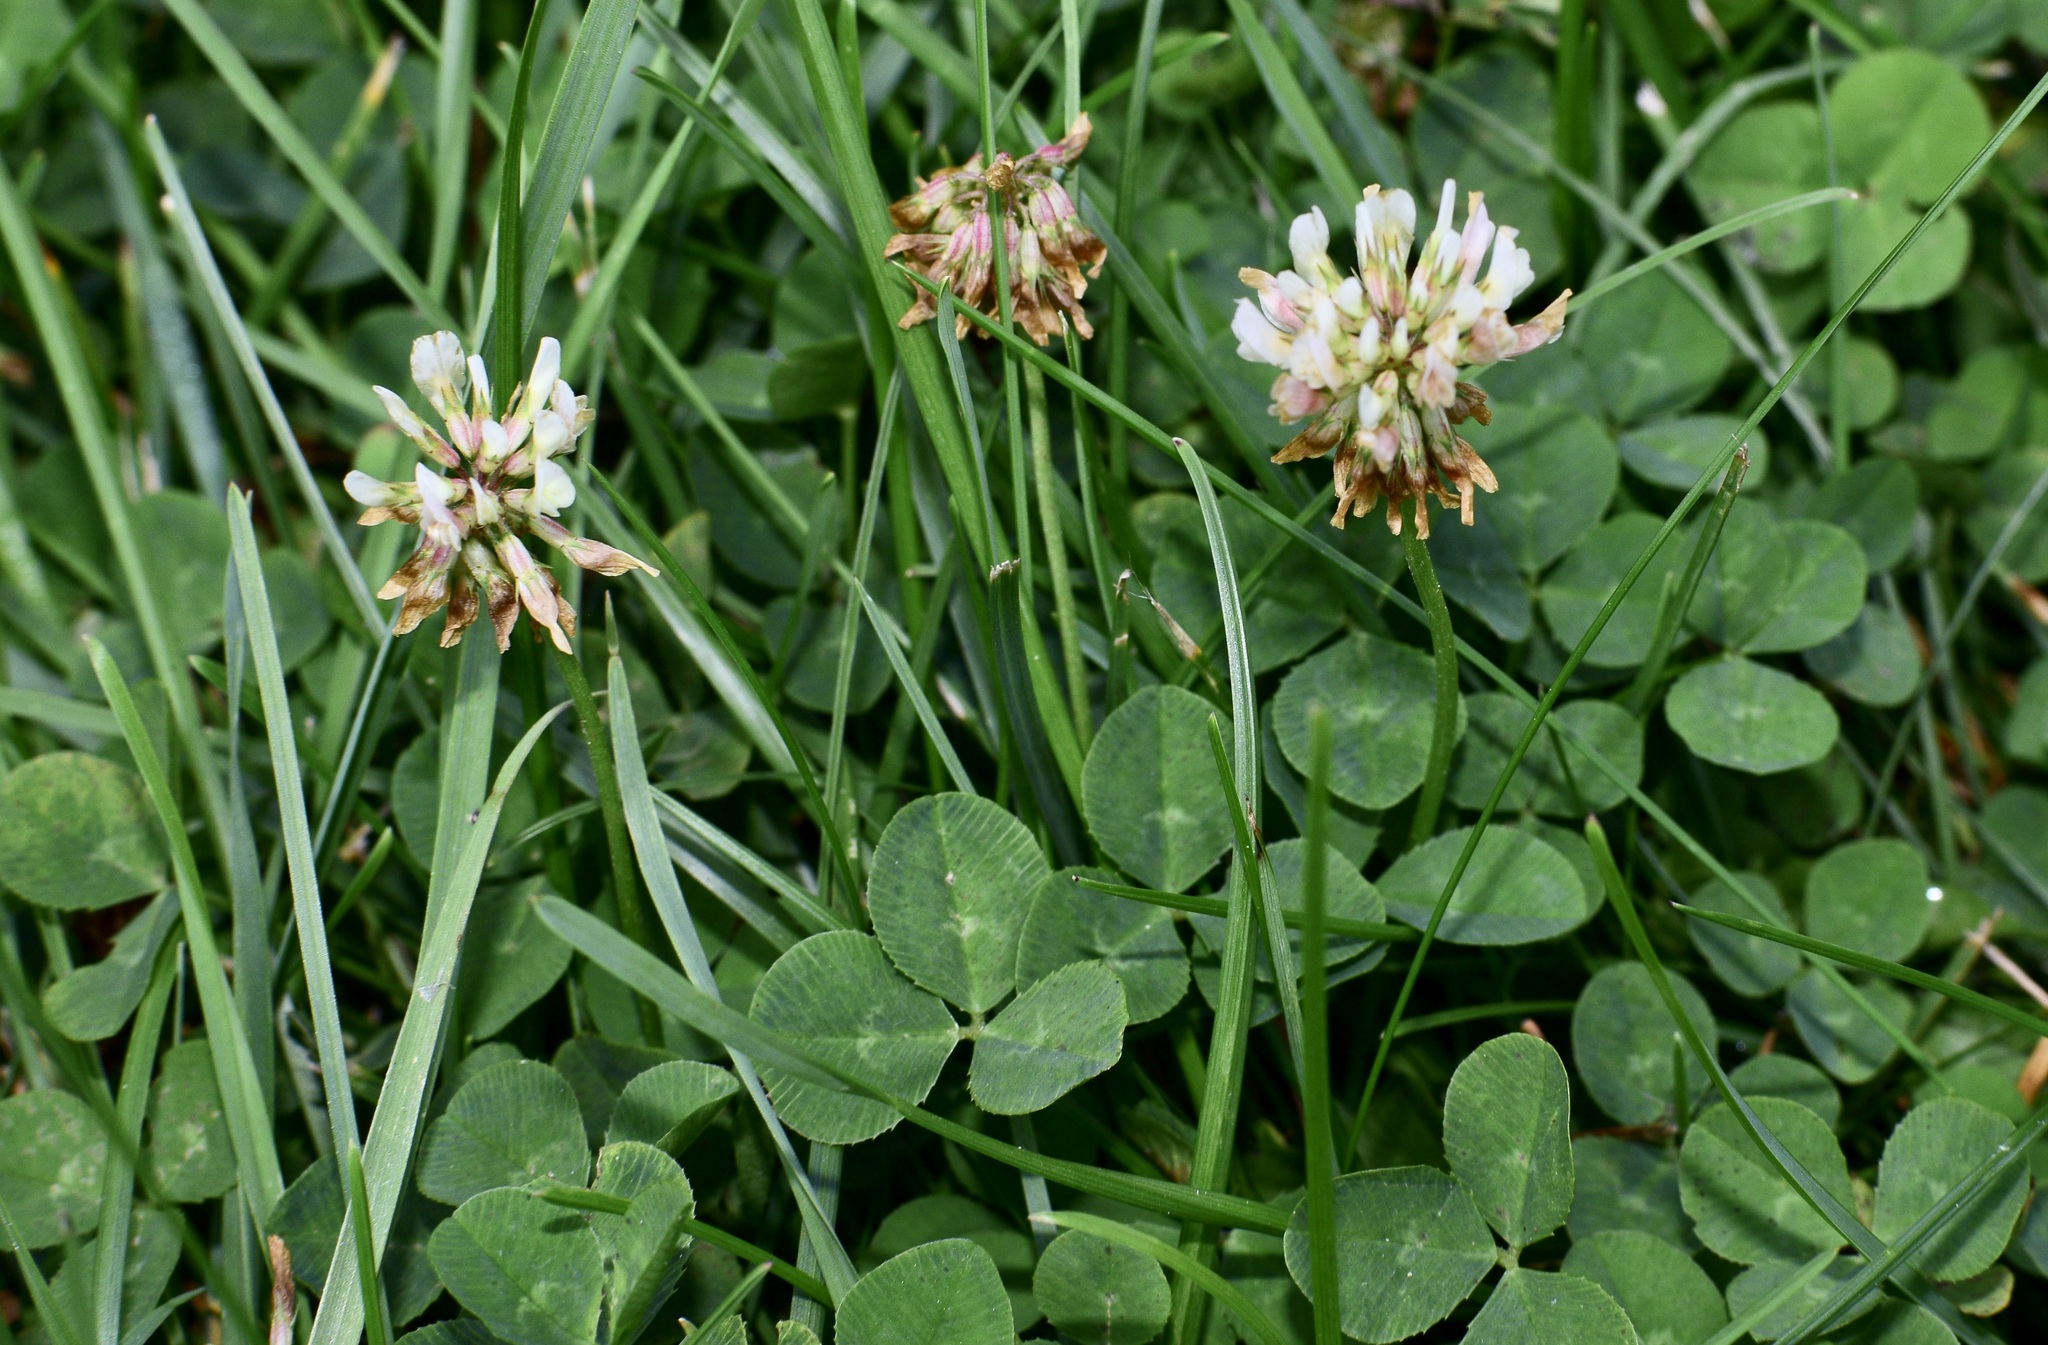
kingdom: Plantae
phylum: Tracheophyta
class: Magnoliopsida
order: Fabales
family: Fabaceae
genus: Trifolium
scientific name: Trifolium repens
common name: White clover
